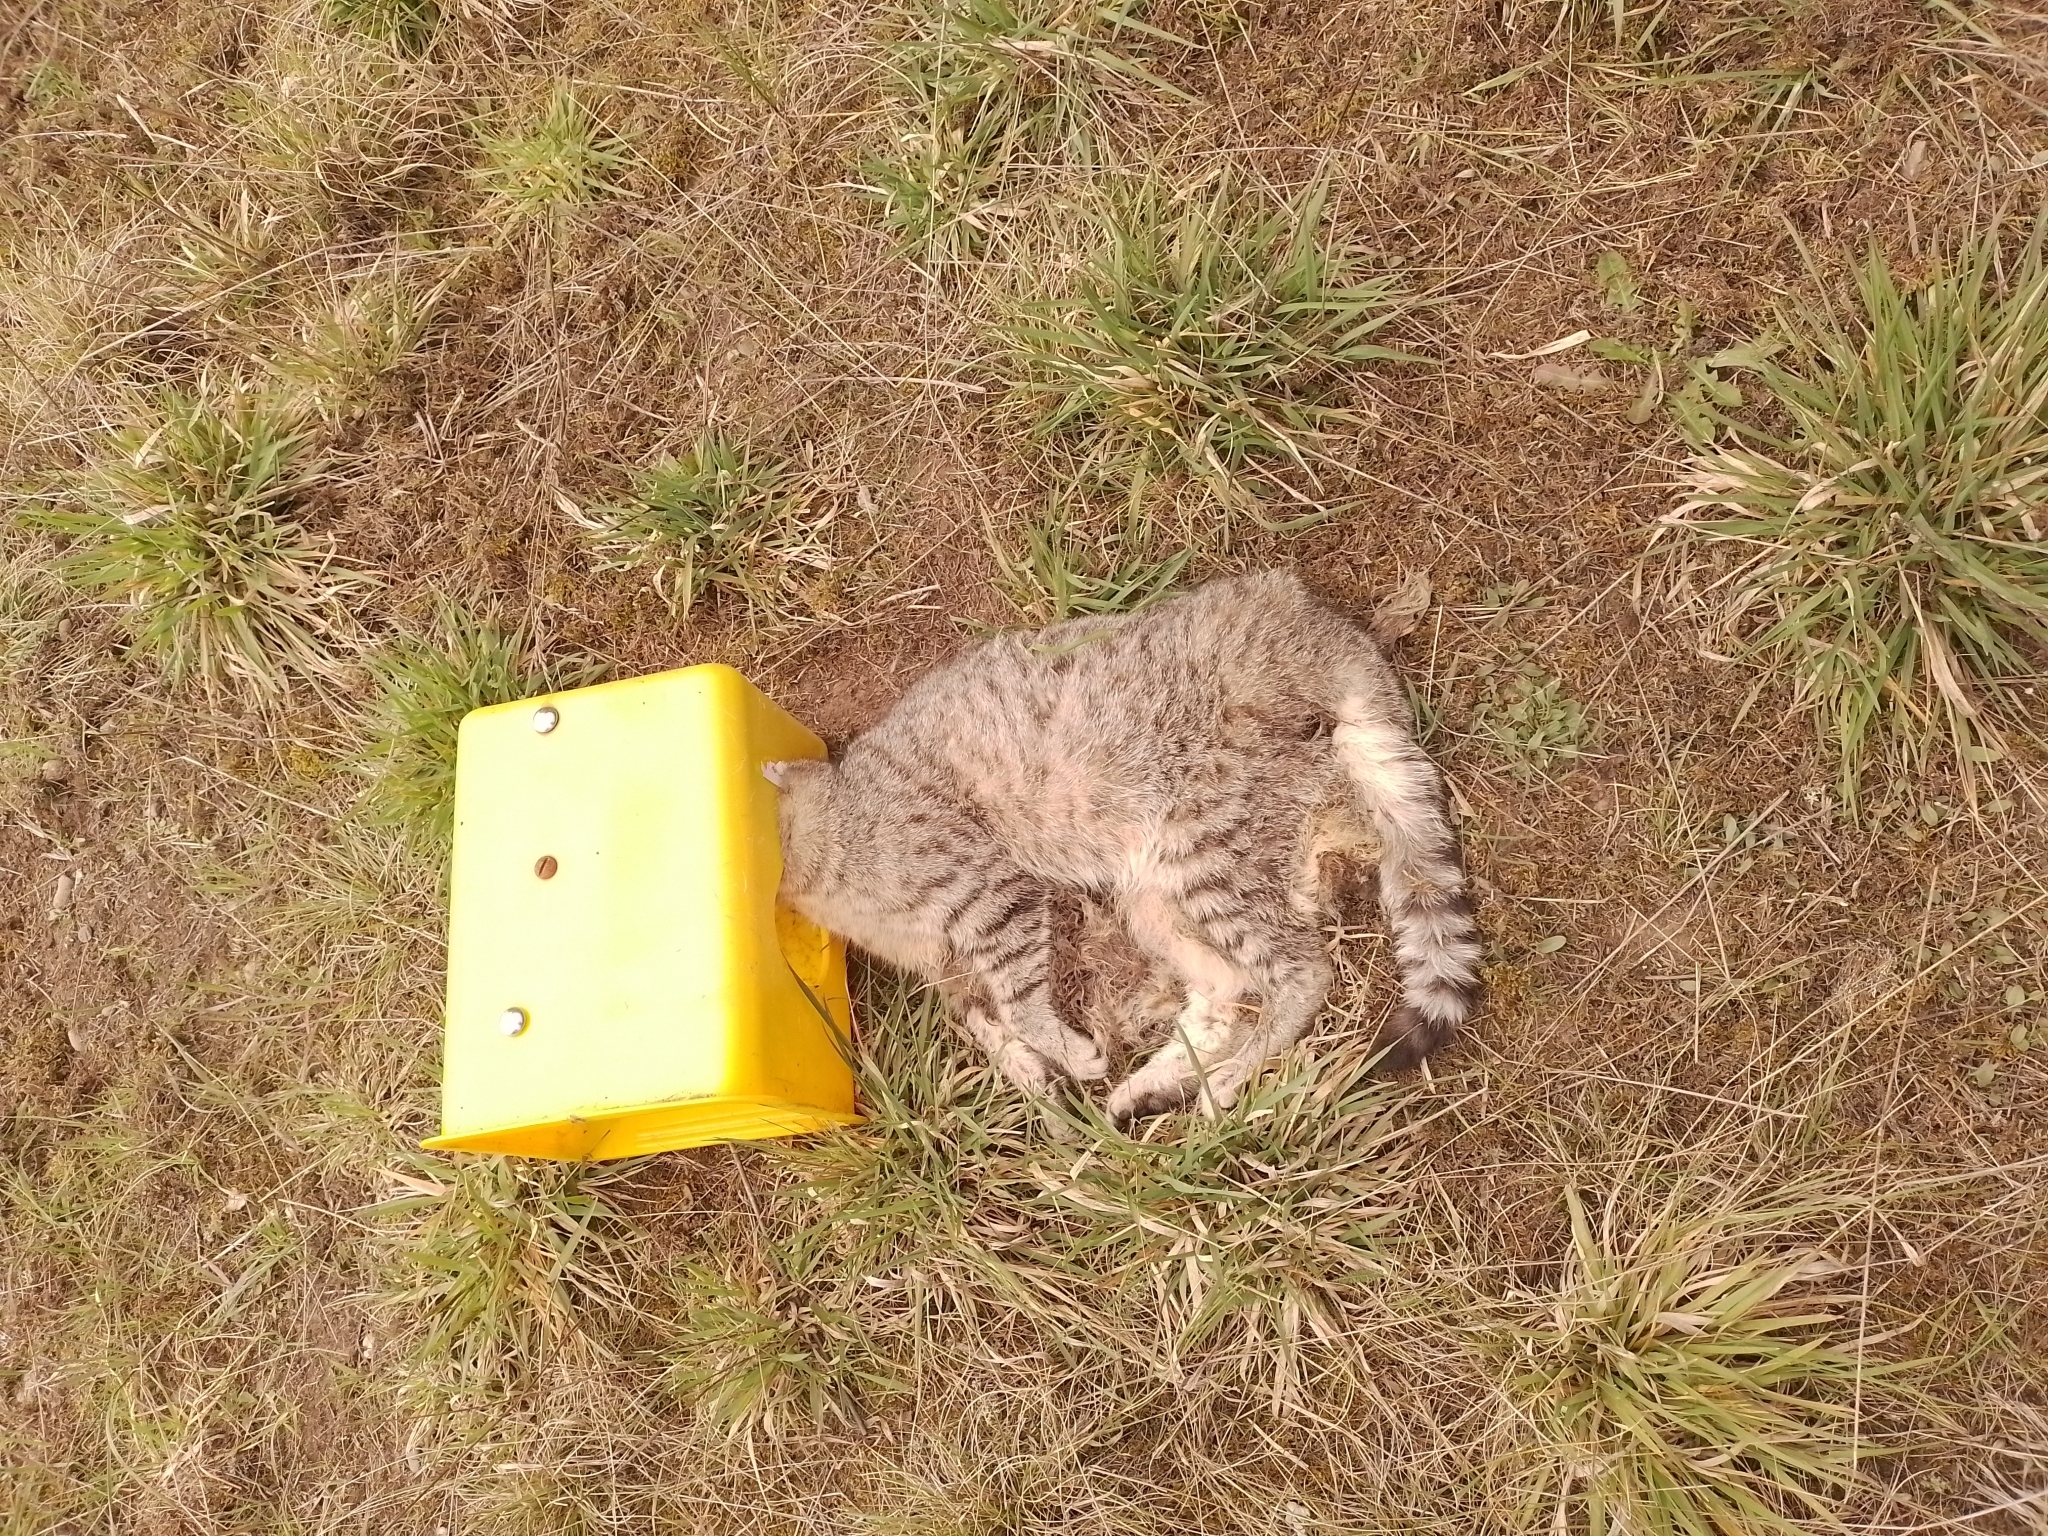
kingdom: Animalia
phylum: Chordata
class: Mammalia
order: Carnivora
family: Felidae
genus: Felis
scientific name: Felis catus
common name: Domestic cat
